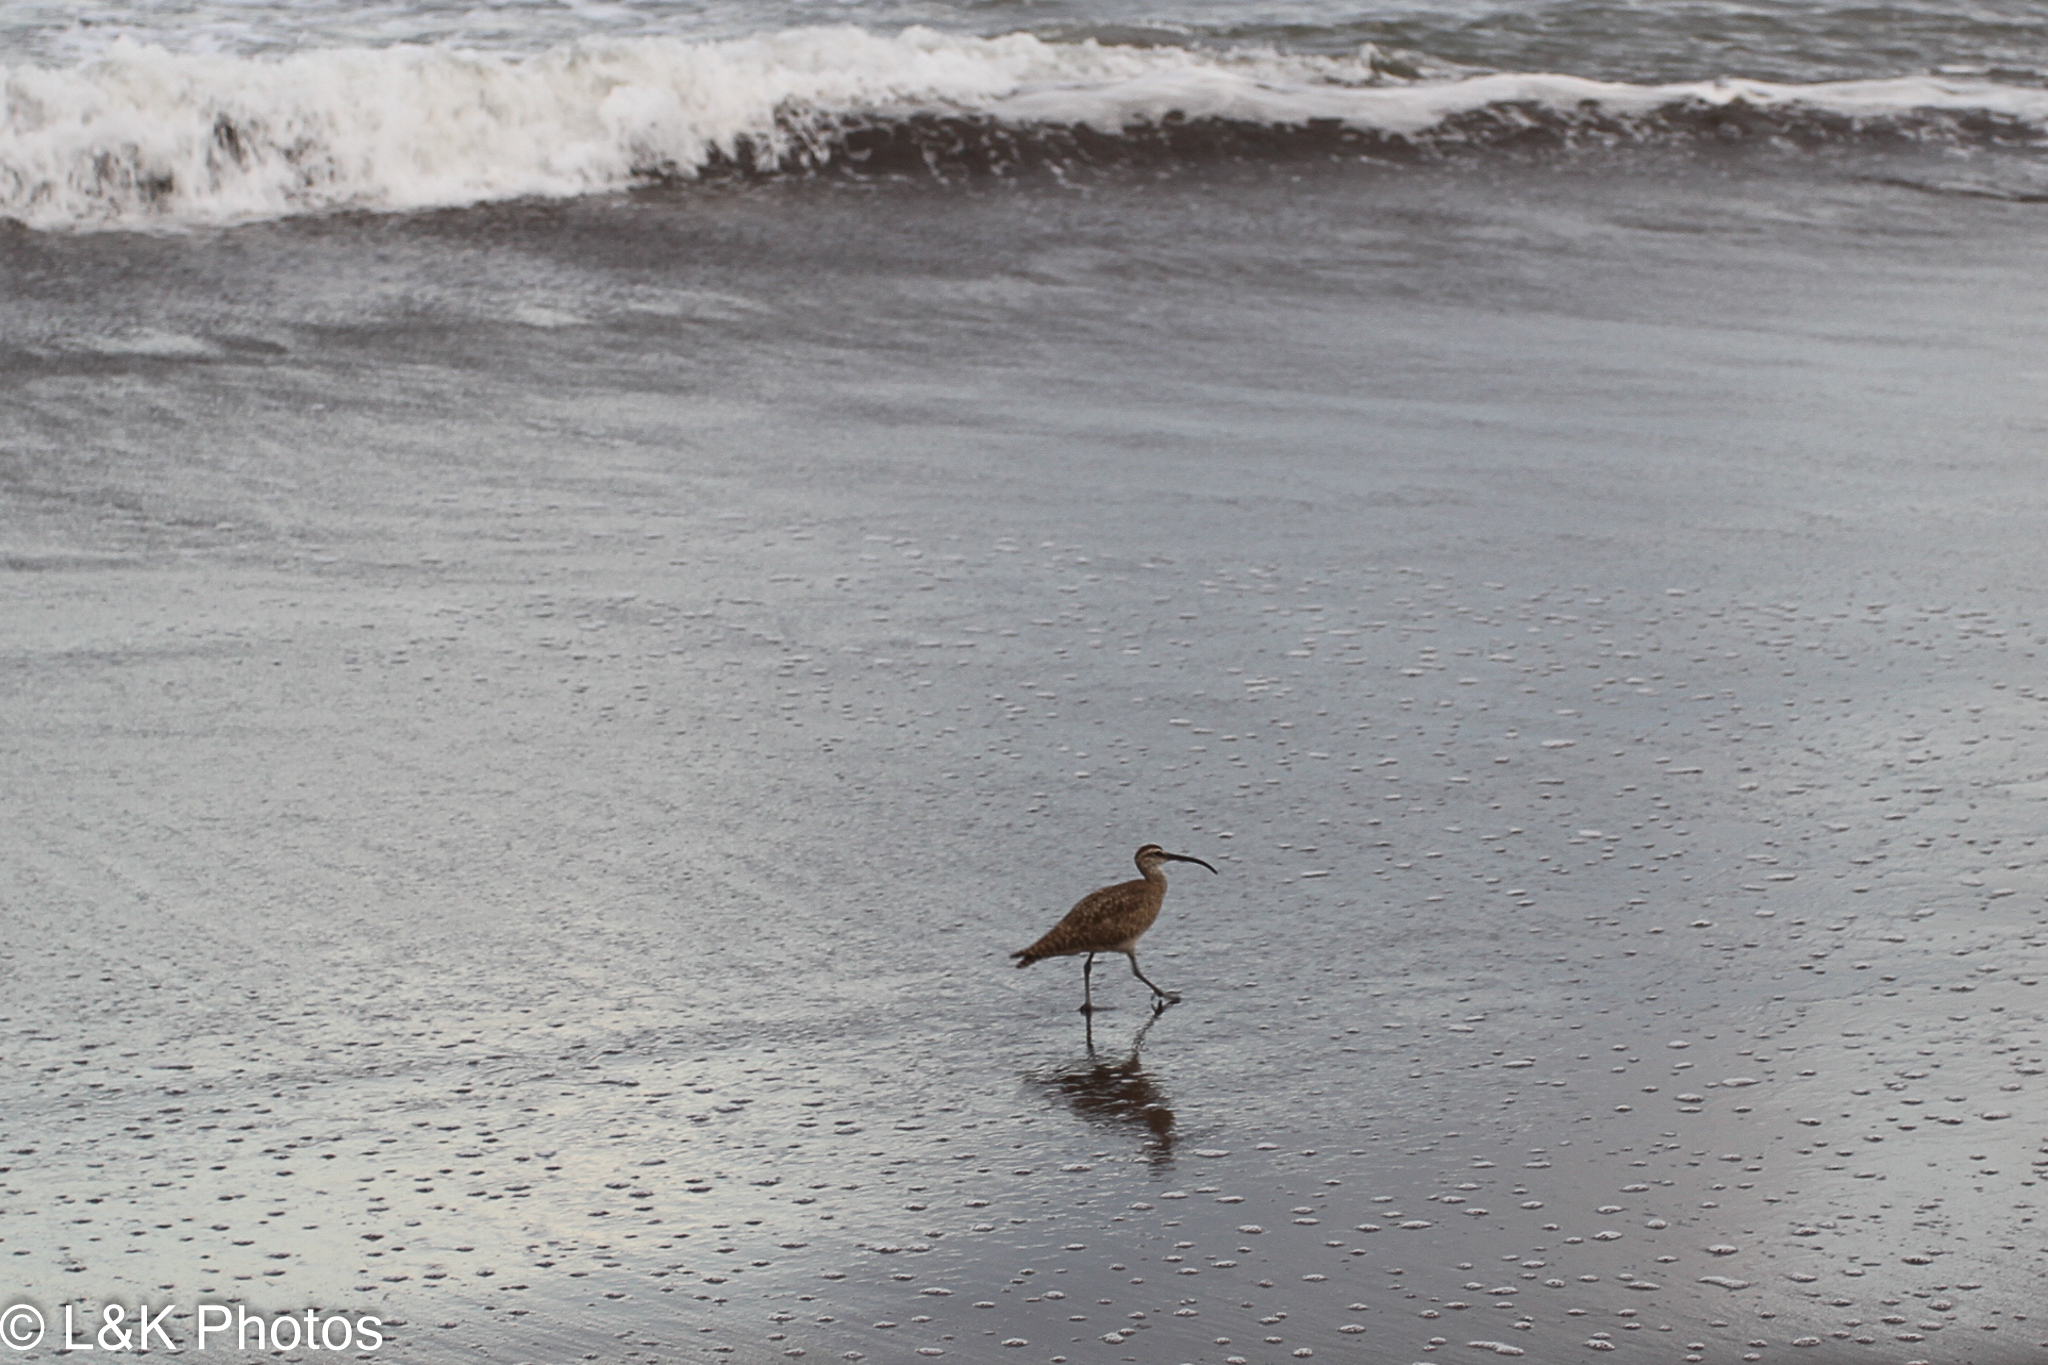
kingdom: Animalia
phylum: Chordata
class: Aves
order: Charadriiformes
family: Scolopacidae
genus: Numenius
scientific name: Numenius phaeopus
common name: Whimbrel
